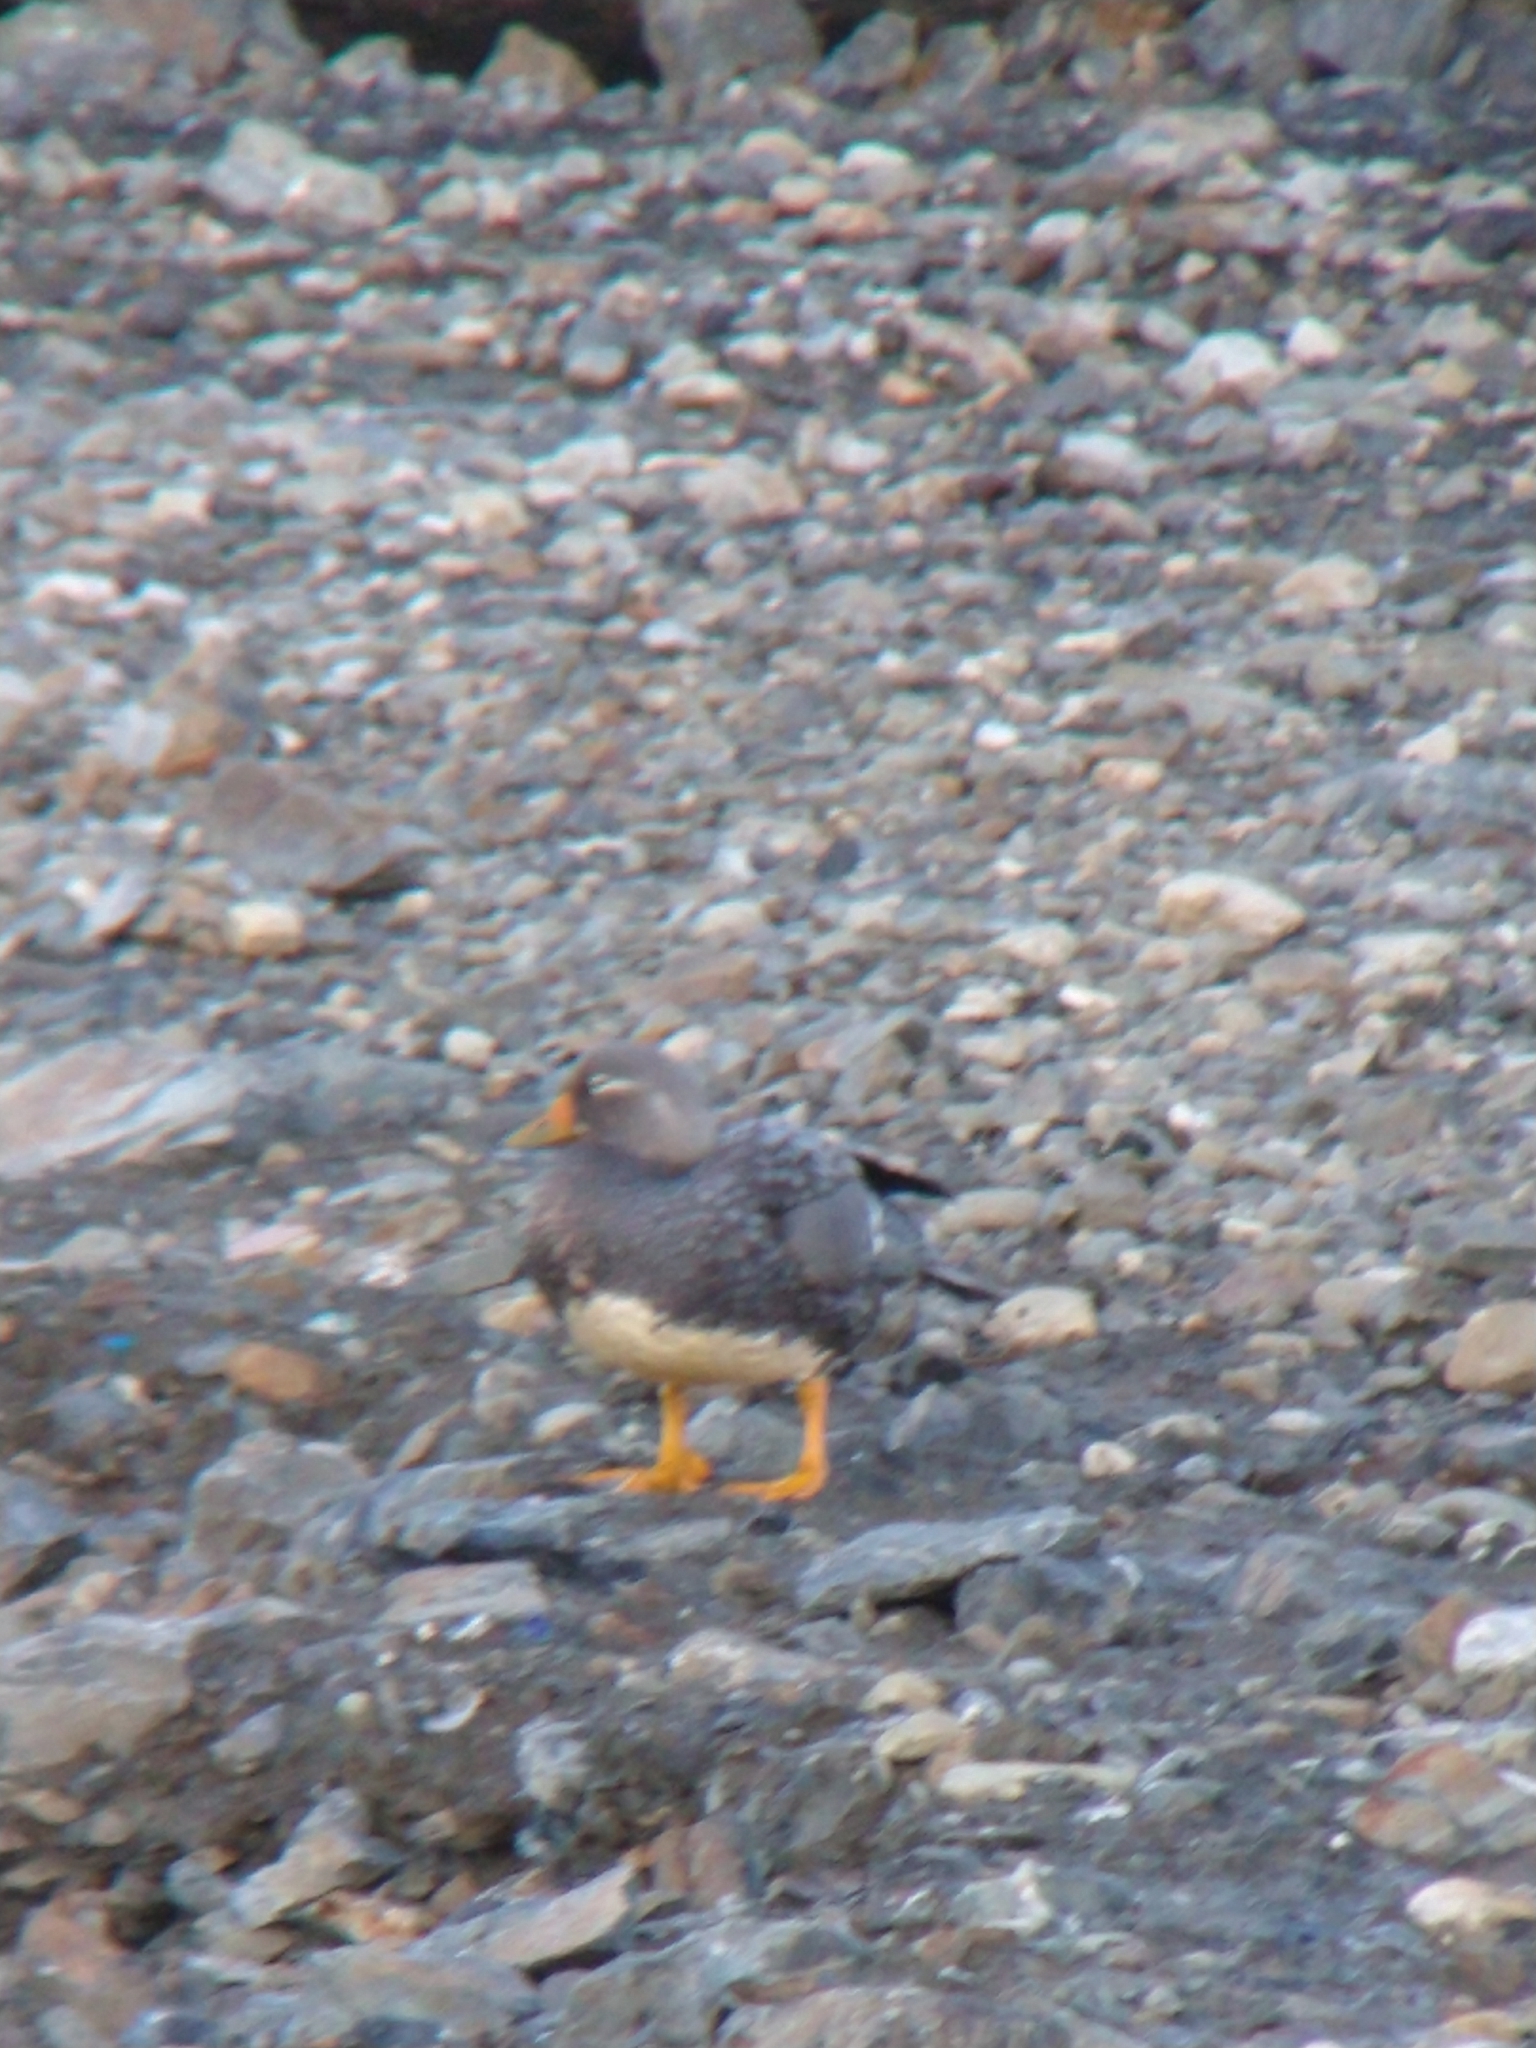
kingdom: Animalia
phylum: Chordata
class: Aves
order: Anseriformes
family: Anatidae
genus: Tachyeres
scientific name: Tachyeres patachonicus
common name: Flying steamer duck
